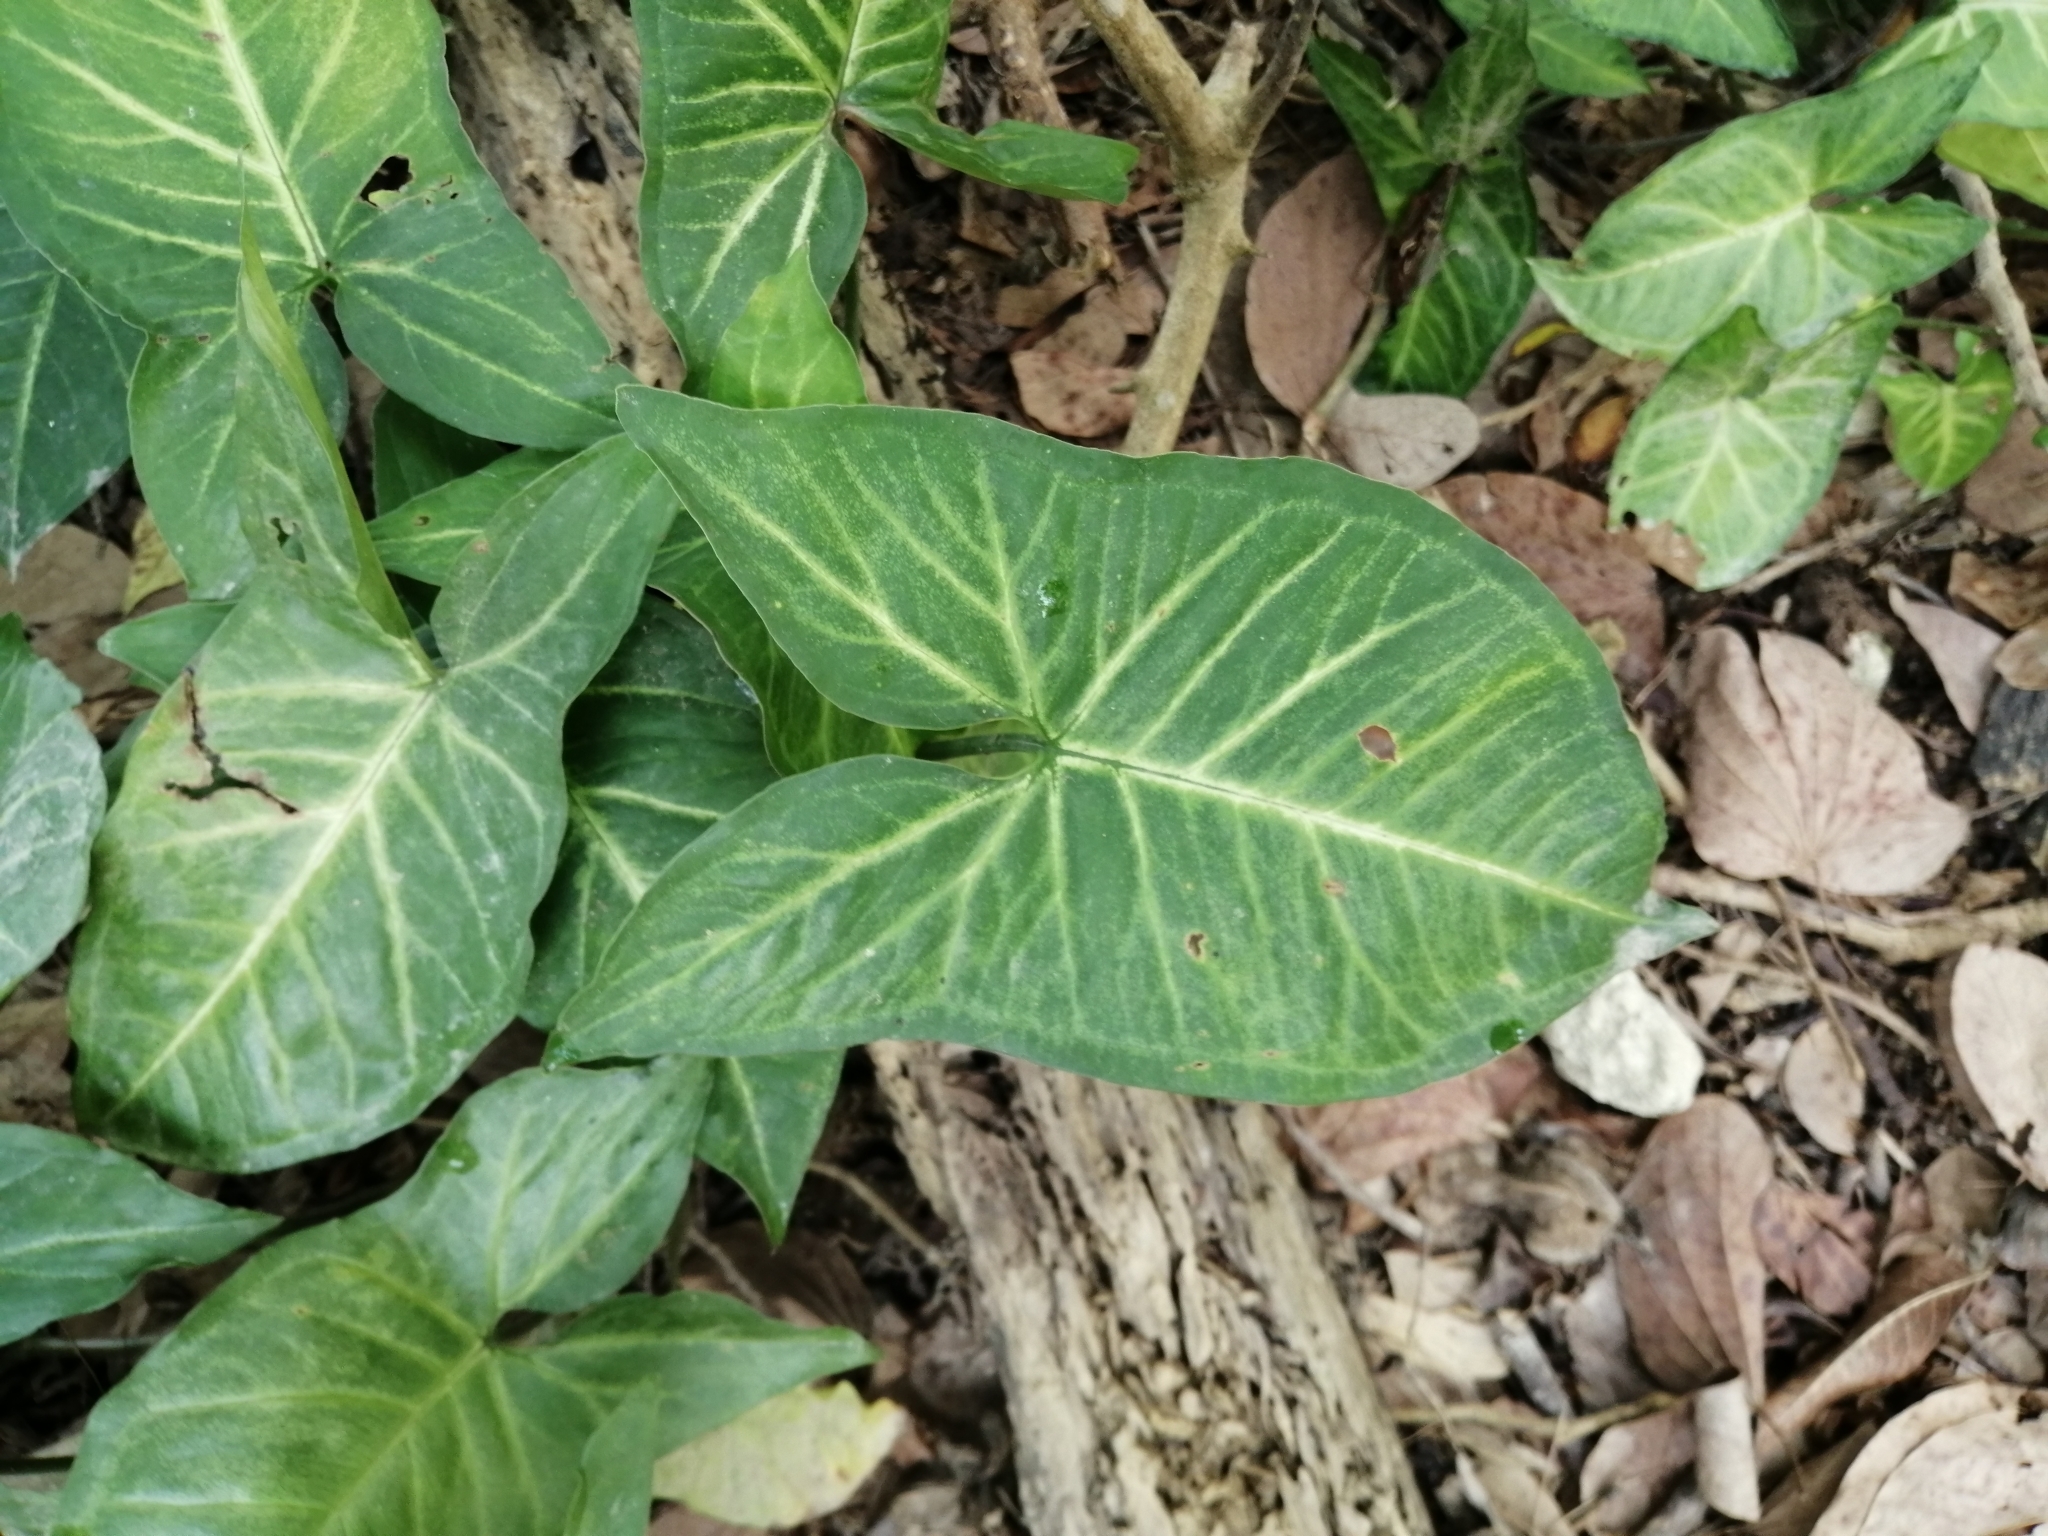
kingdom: Plantae
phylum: Tracheophyta
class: Liliopsida
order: Alismatales
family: Araceae
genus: Syngonium
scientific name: Syngonium podophyllum
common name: American evergreen
